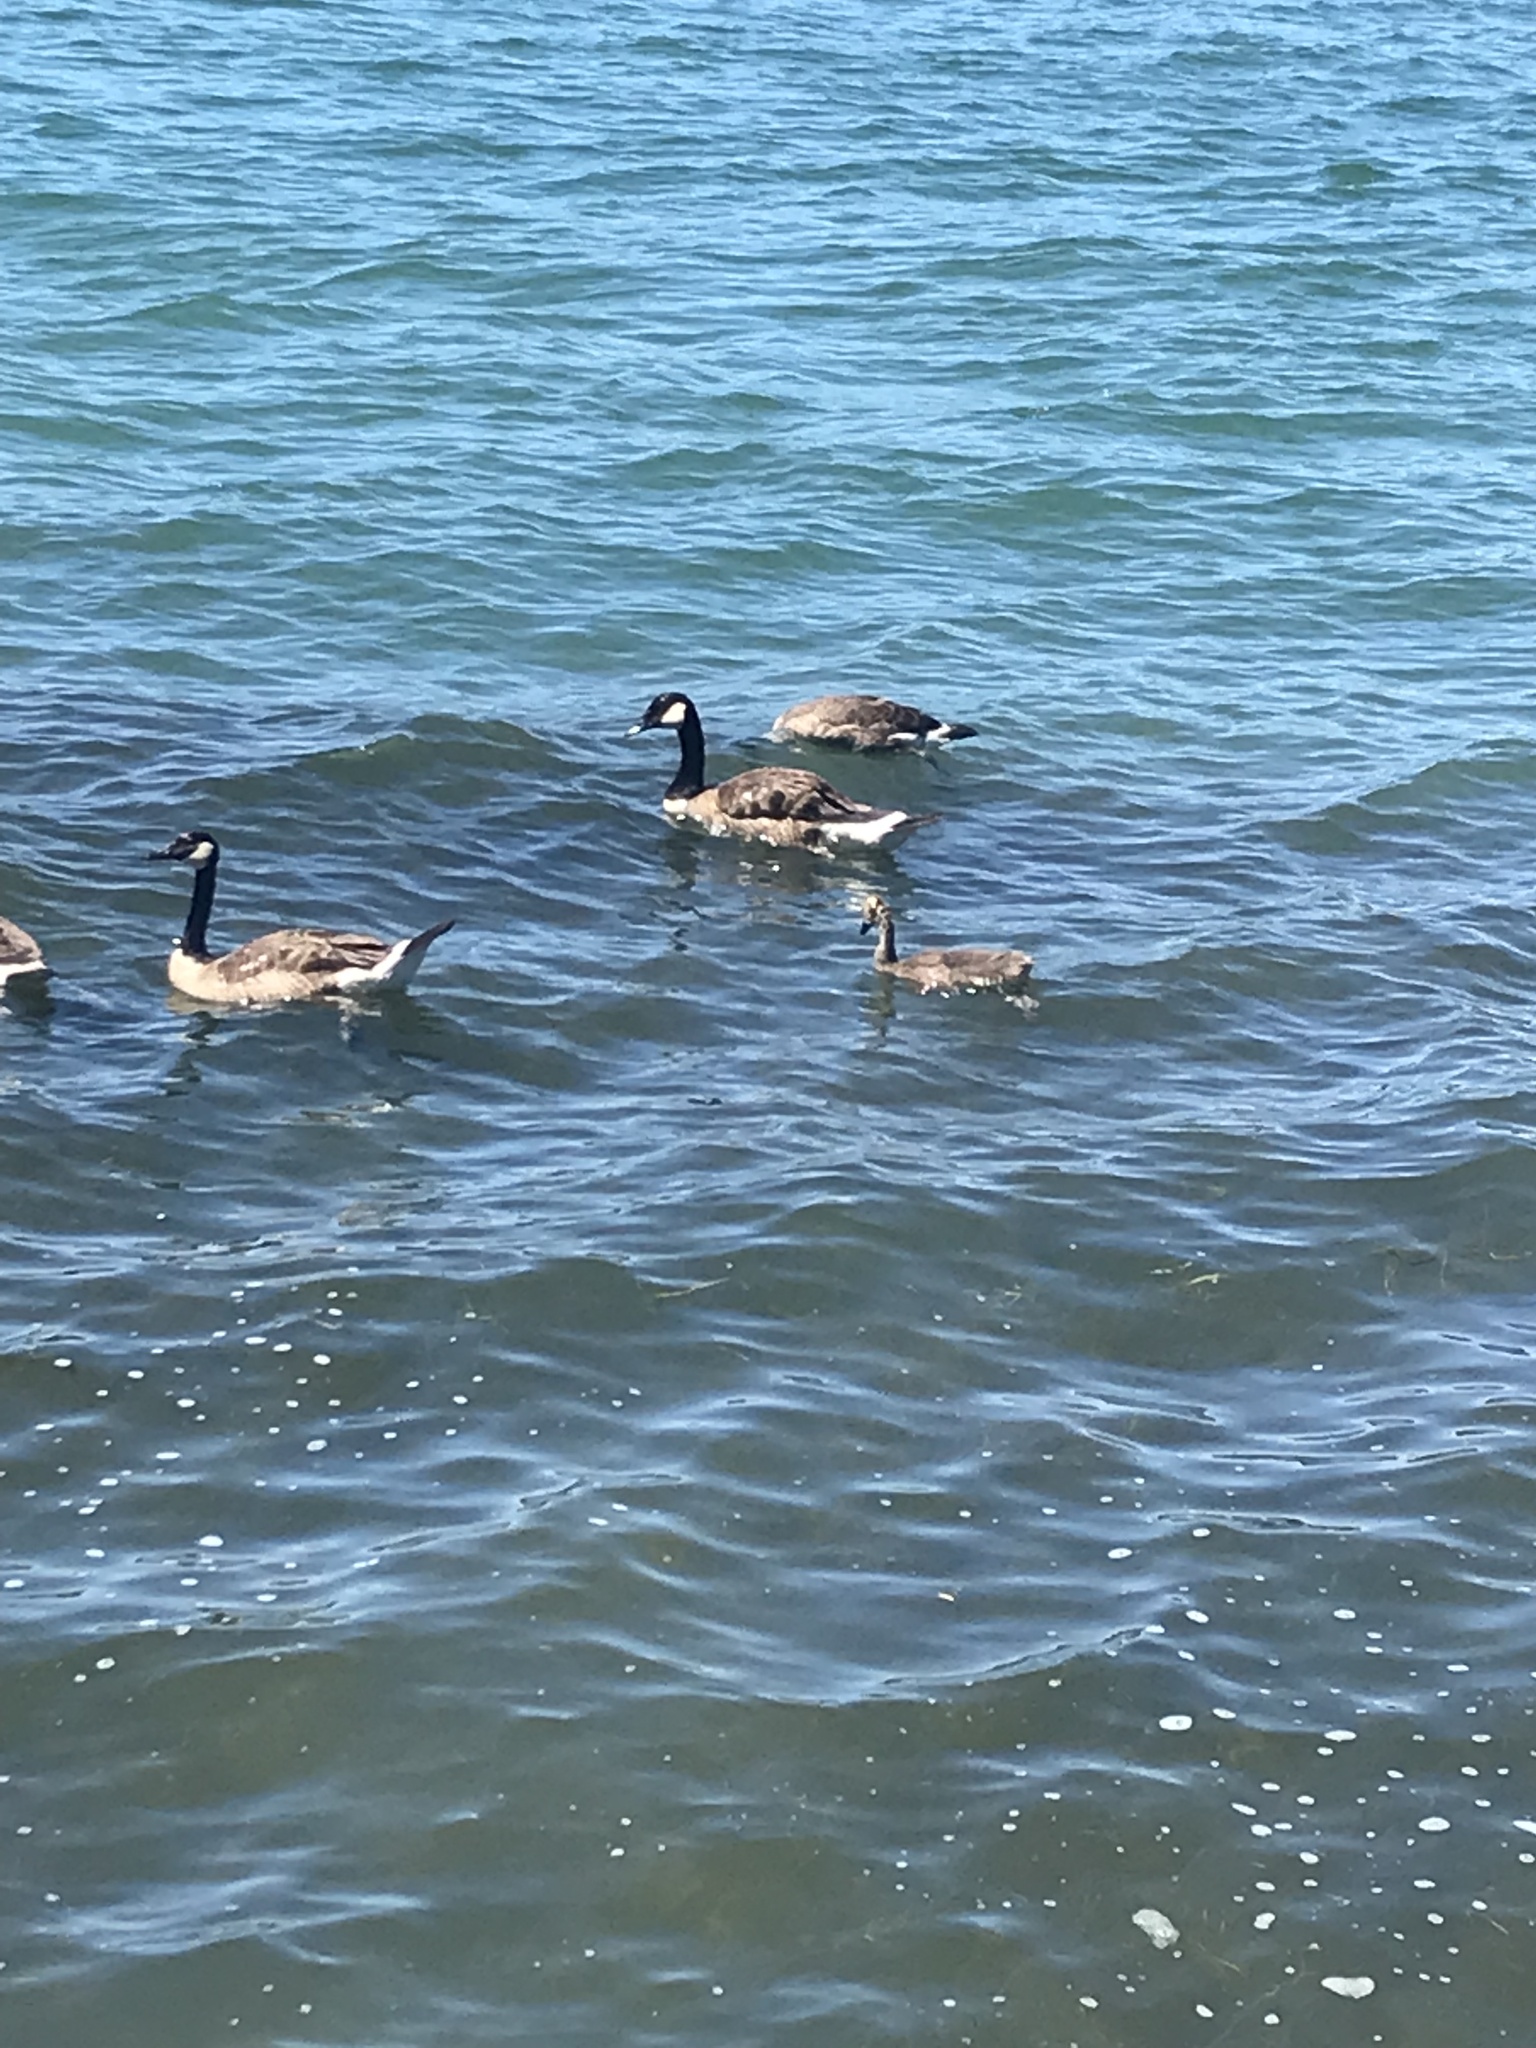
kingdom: Animalia
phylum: Chordata
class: Aves
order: Anseriformes
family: Anatidae
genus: Branta
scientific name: Branta canadensis
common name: Canada goose
